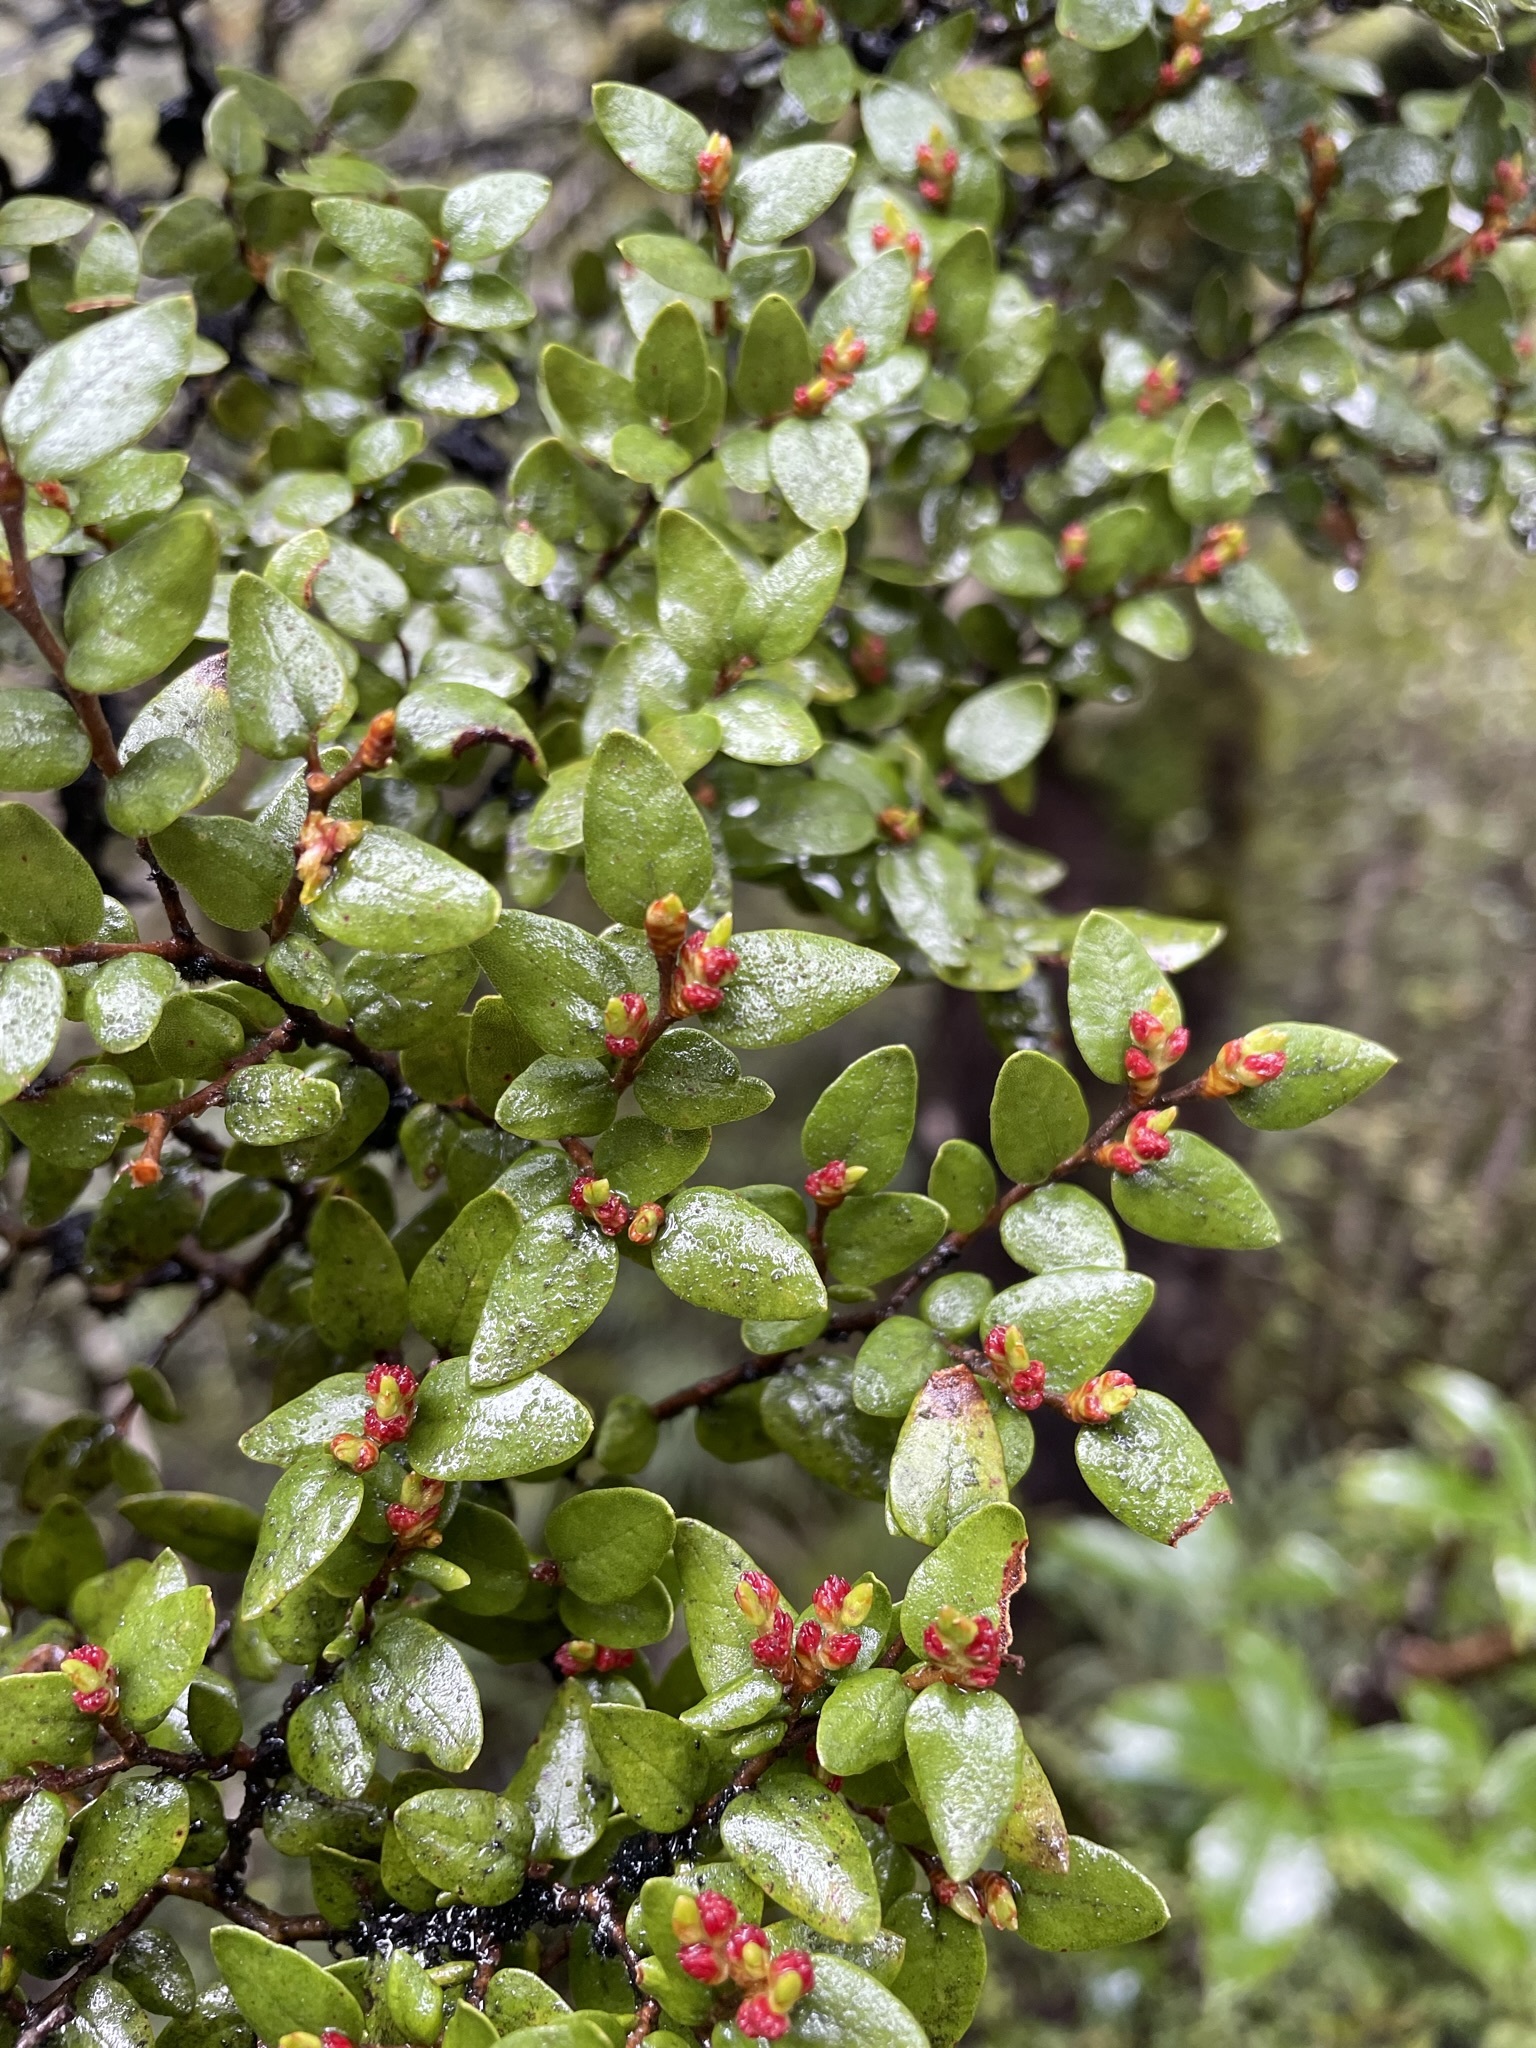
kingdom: Plantae
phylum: Tracheophyta
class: Magnoliopsida
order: Fagales
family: Nothofagaceae
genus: Nothofagus
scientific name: Nothofagus cliffortioides
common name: Mountain beech
